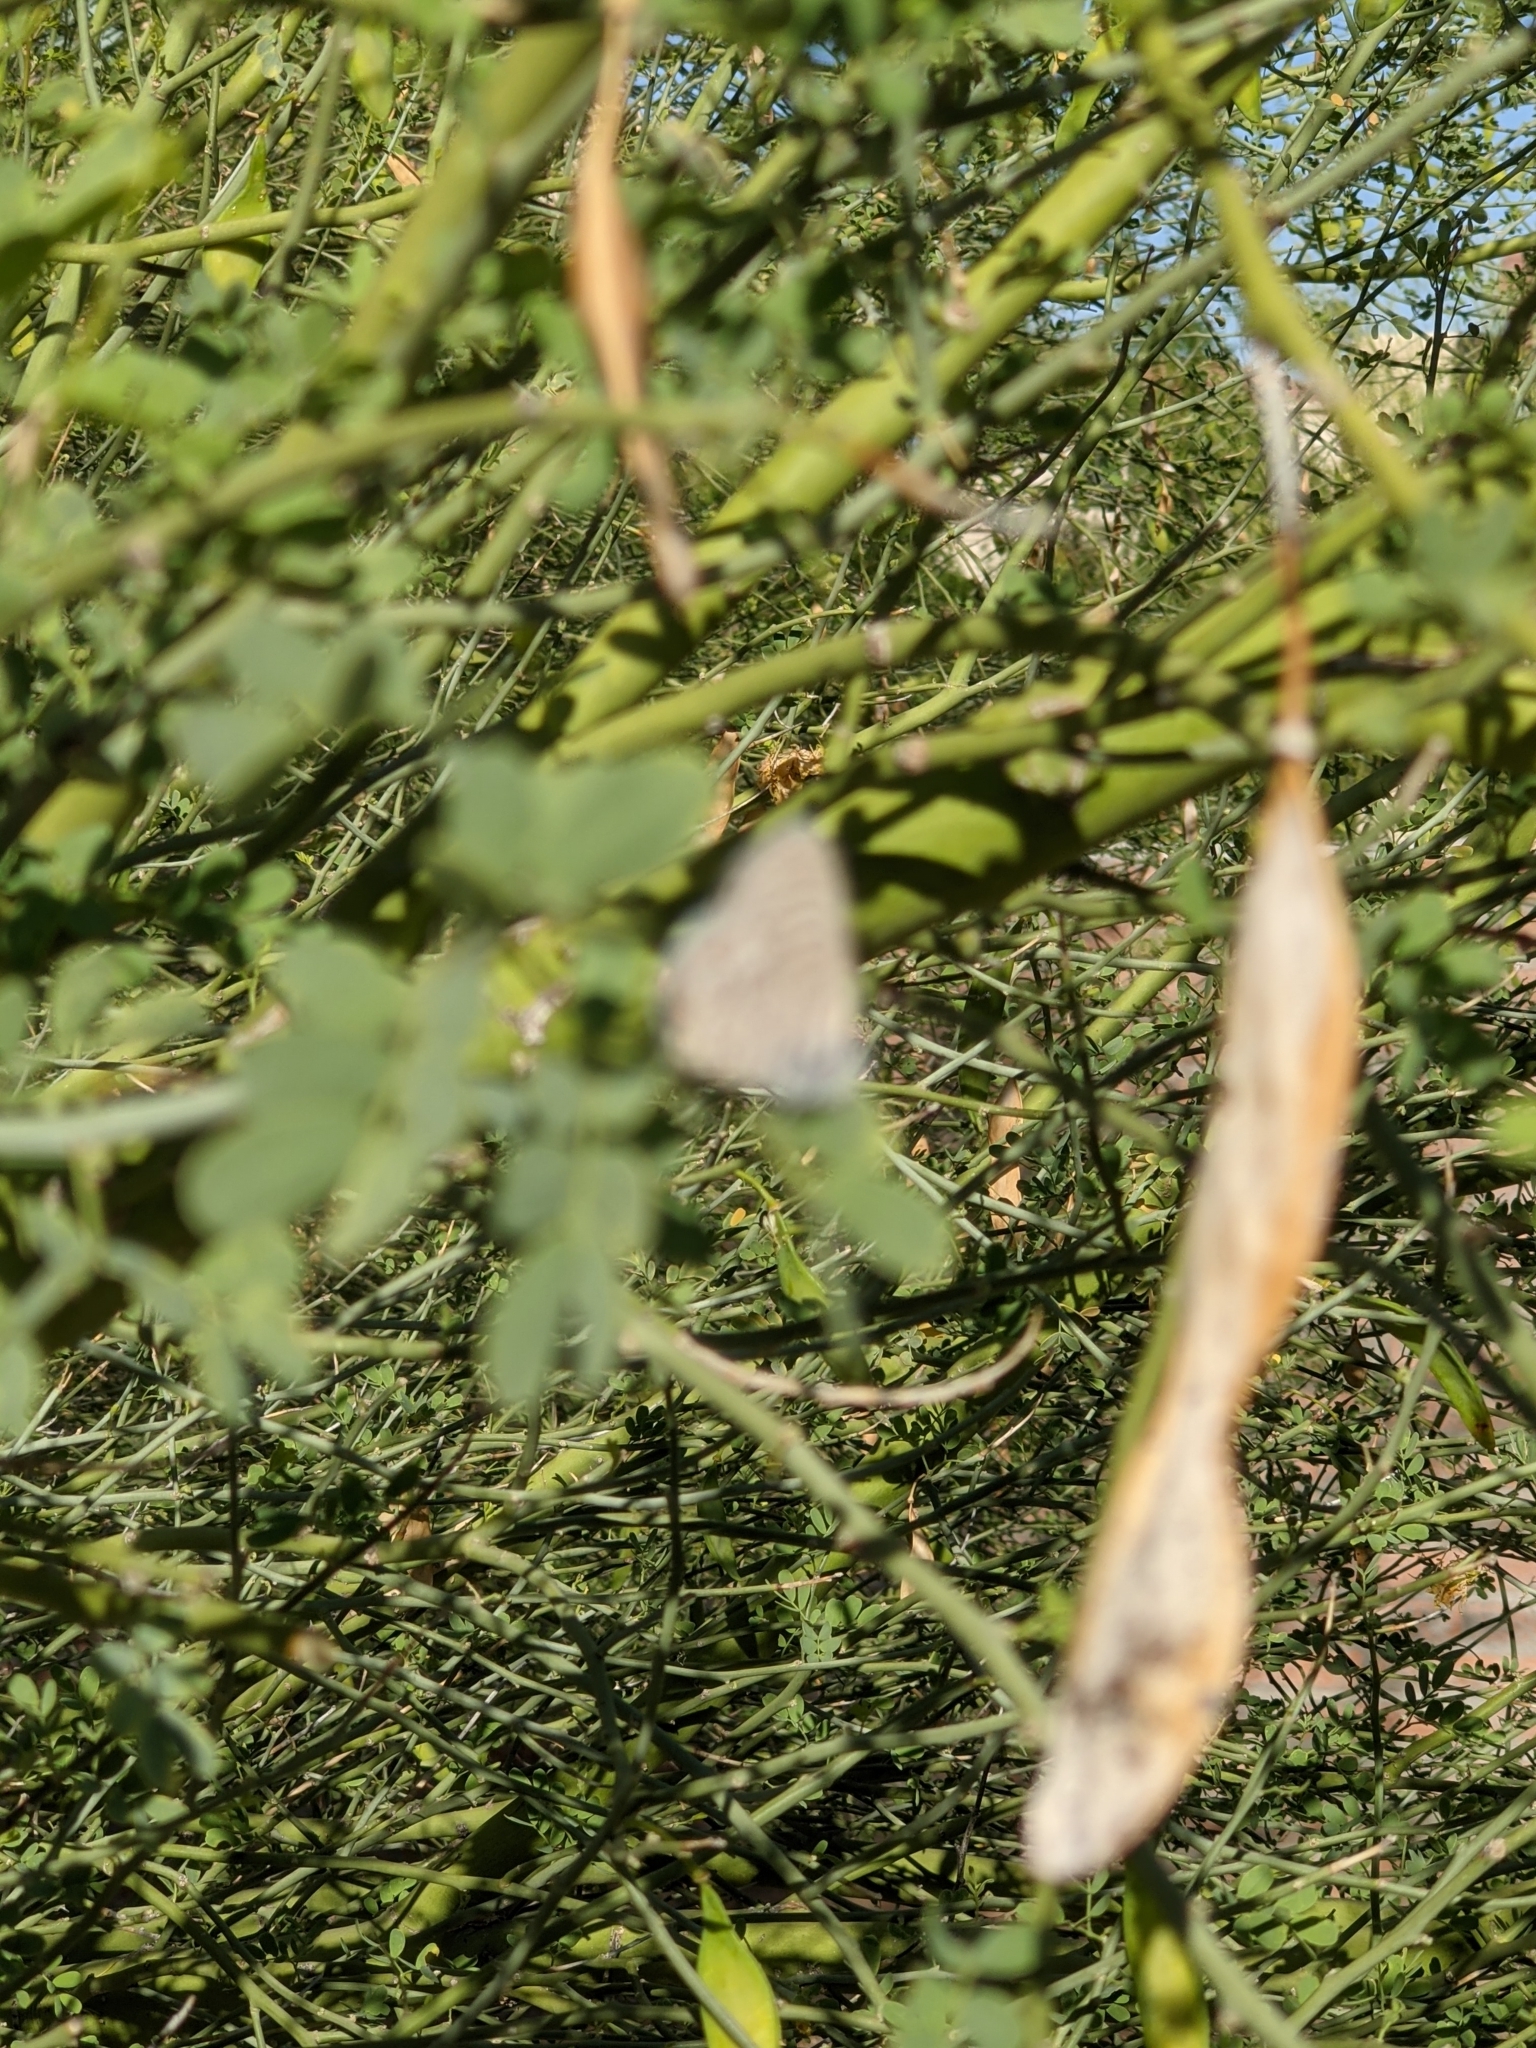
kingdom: Animalia
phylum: Arthropoda
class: Insecta
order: Lepidoptera
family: Lycaenidae
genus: Leptotes
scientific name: Leptotes marina
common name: Marine blue
